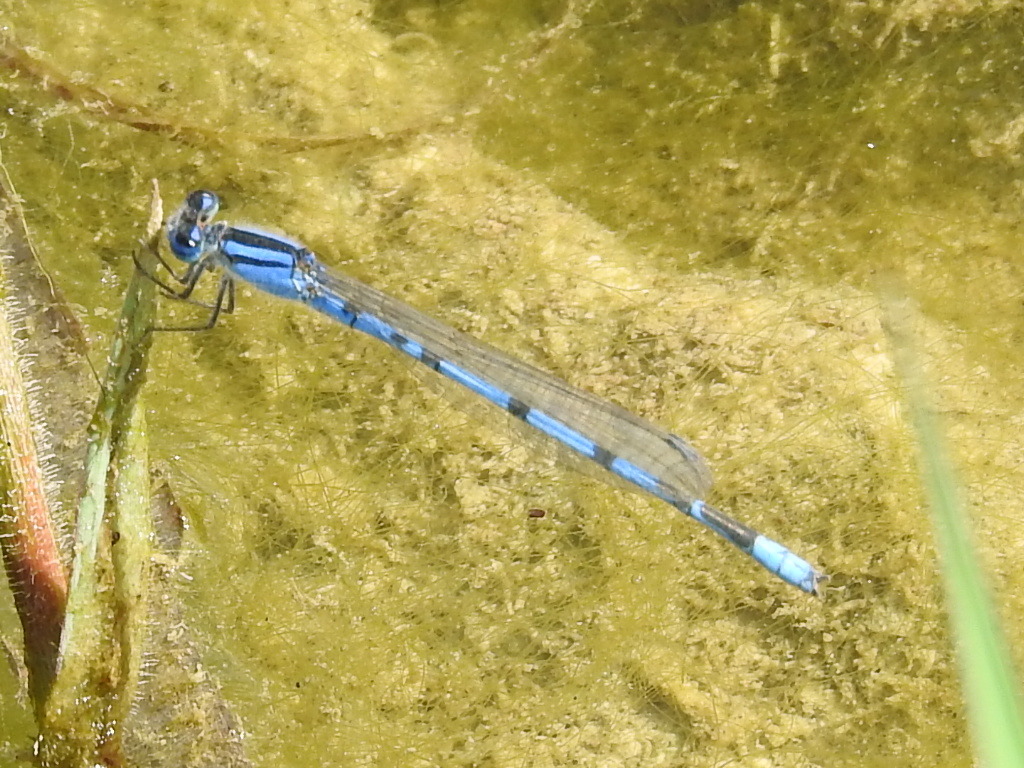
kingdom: Animalia
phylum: Arthropoda
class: Insecta
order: Odonata
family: Coenagrionidae
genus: Enallagma
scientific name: Enallagma civile
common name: Damselfly
